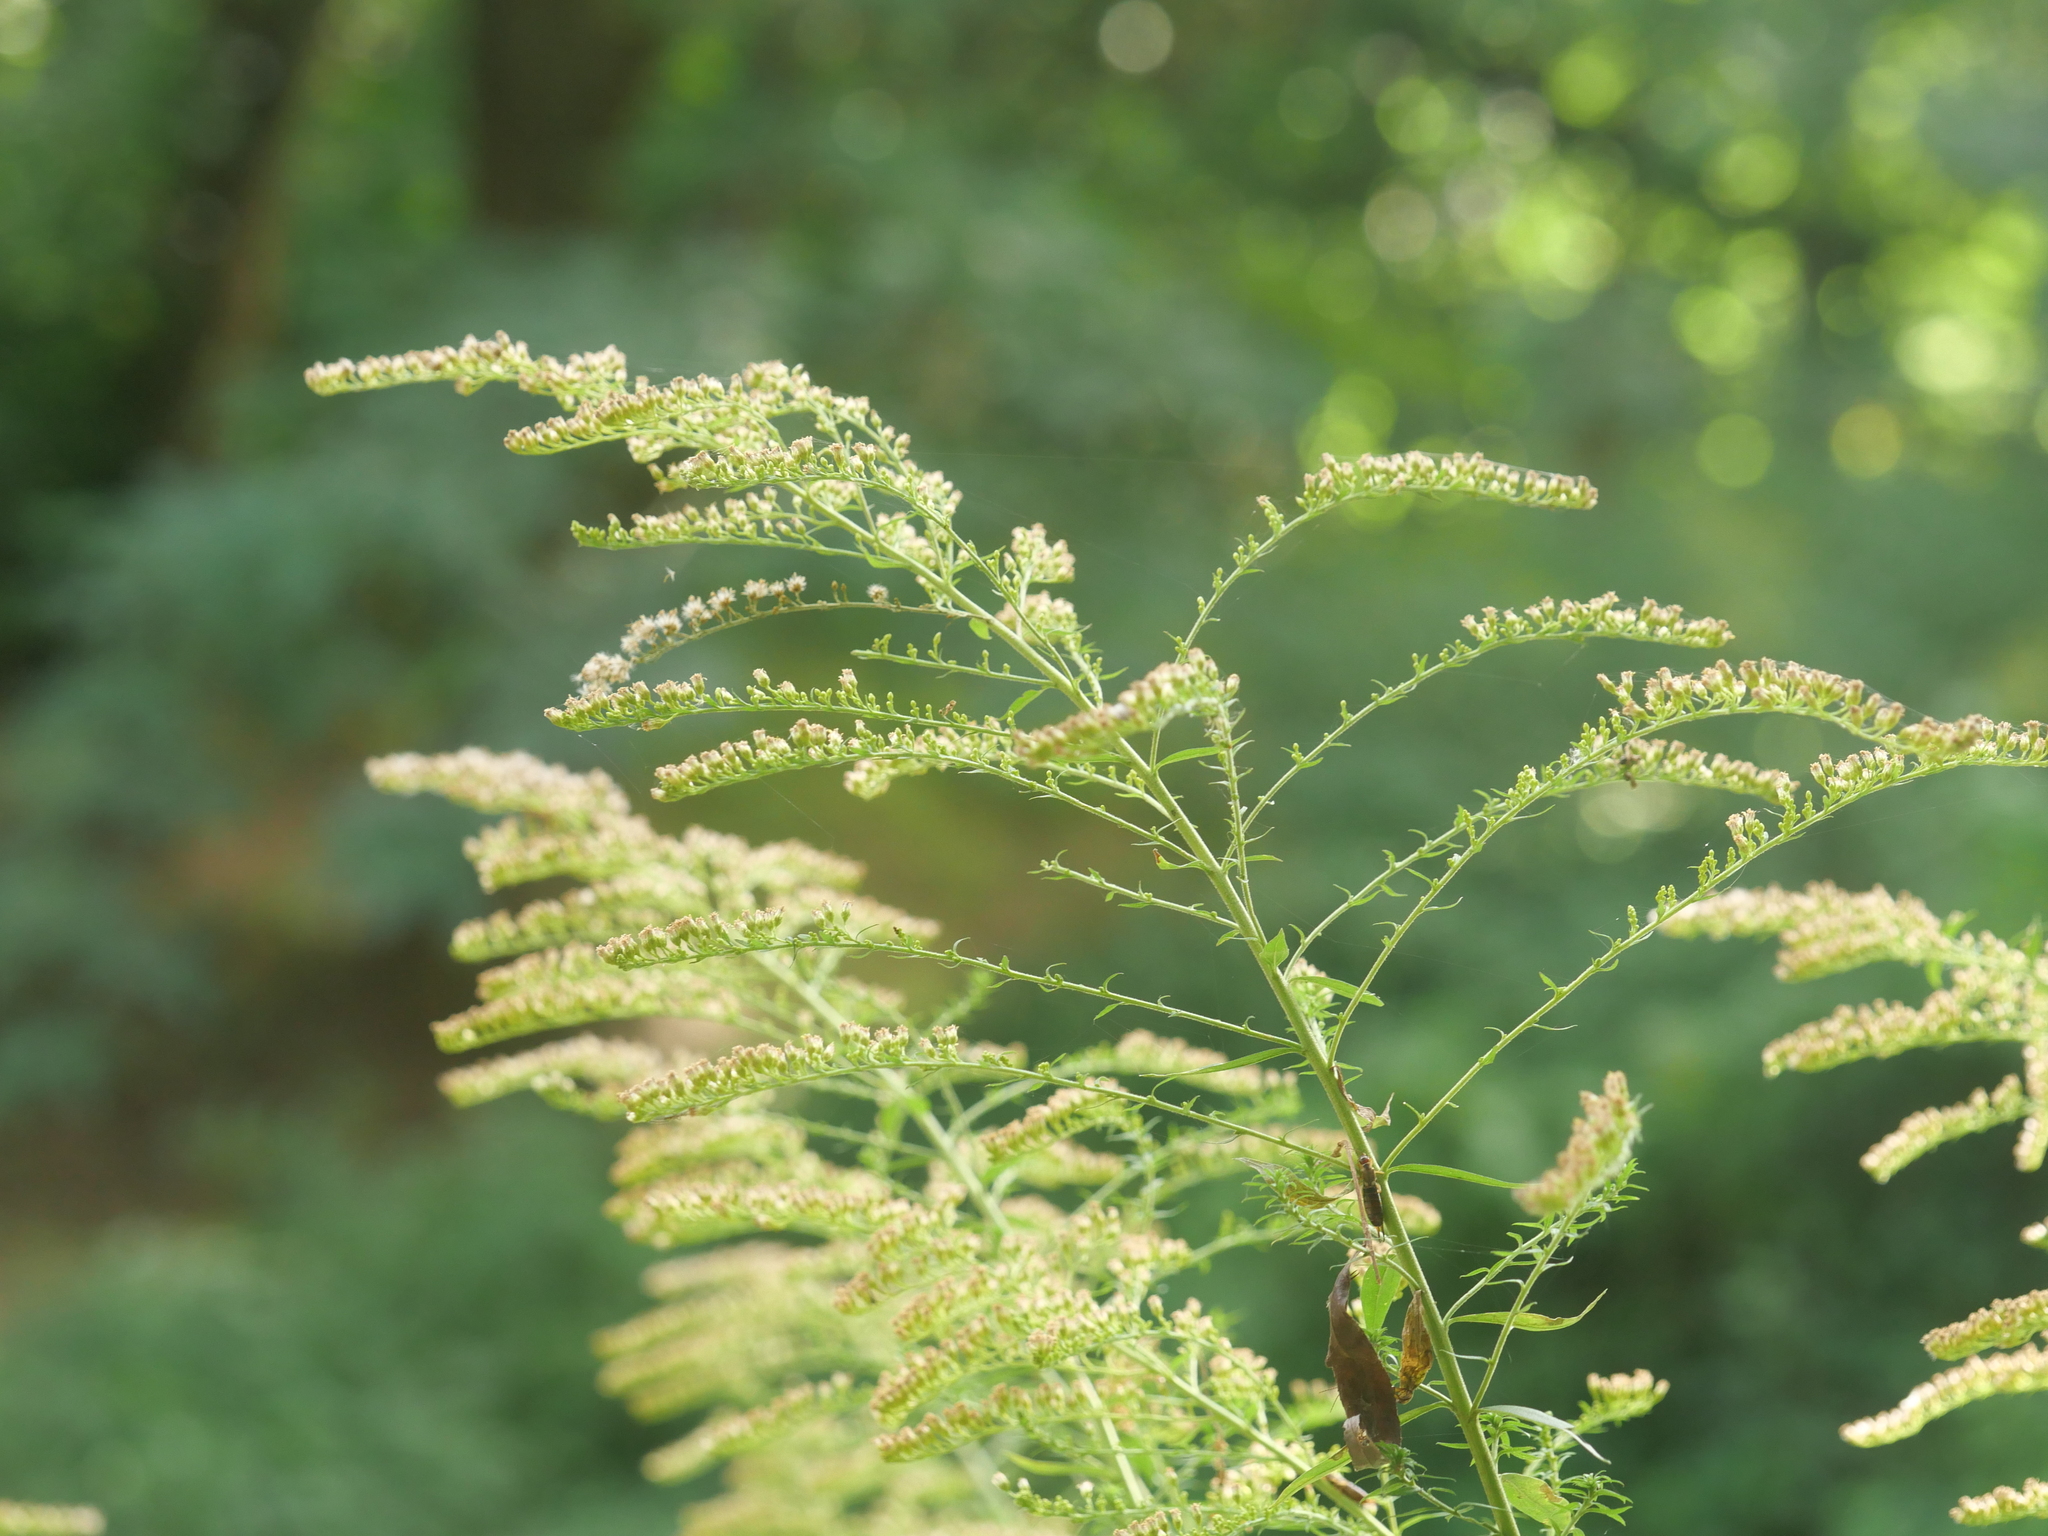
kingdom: Plantae
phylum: Tracheophyta
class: Magnoliopsida
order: Asterales
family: Asteraceae
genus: Solidago
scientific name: Solidago canadensis
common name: Canada goldenrod
